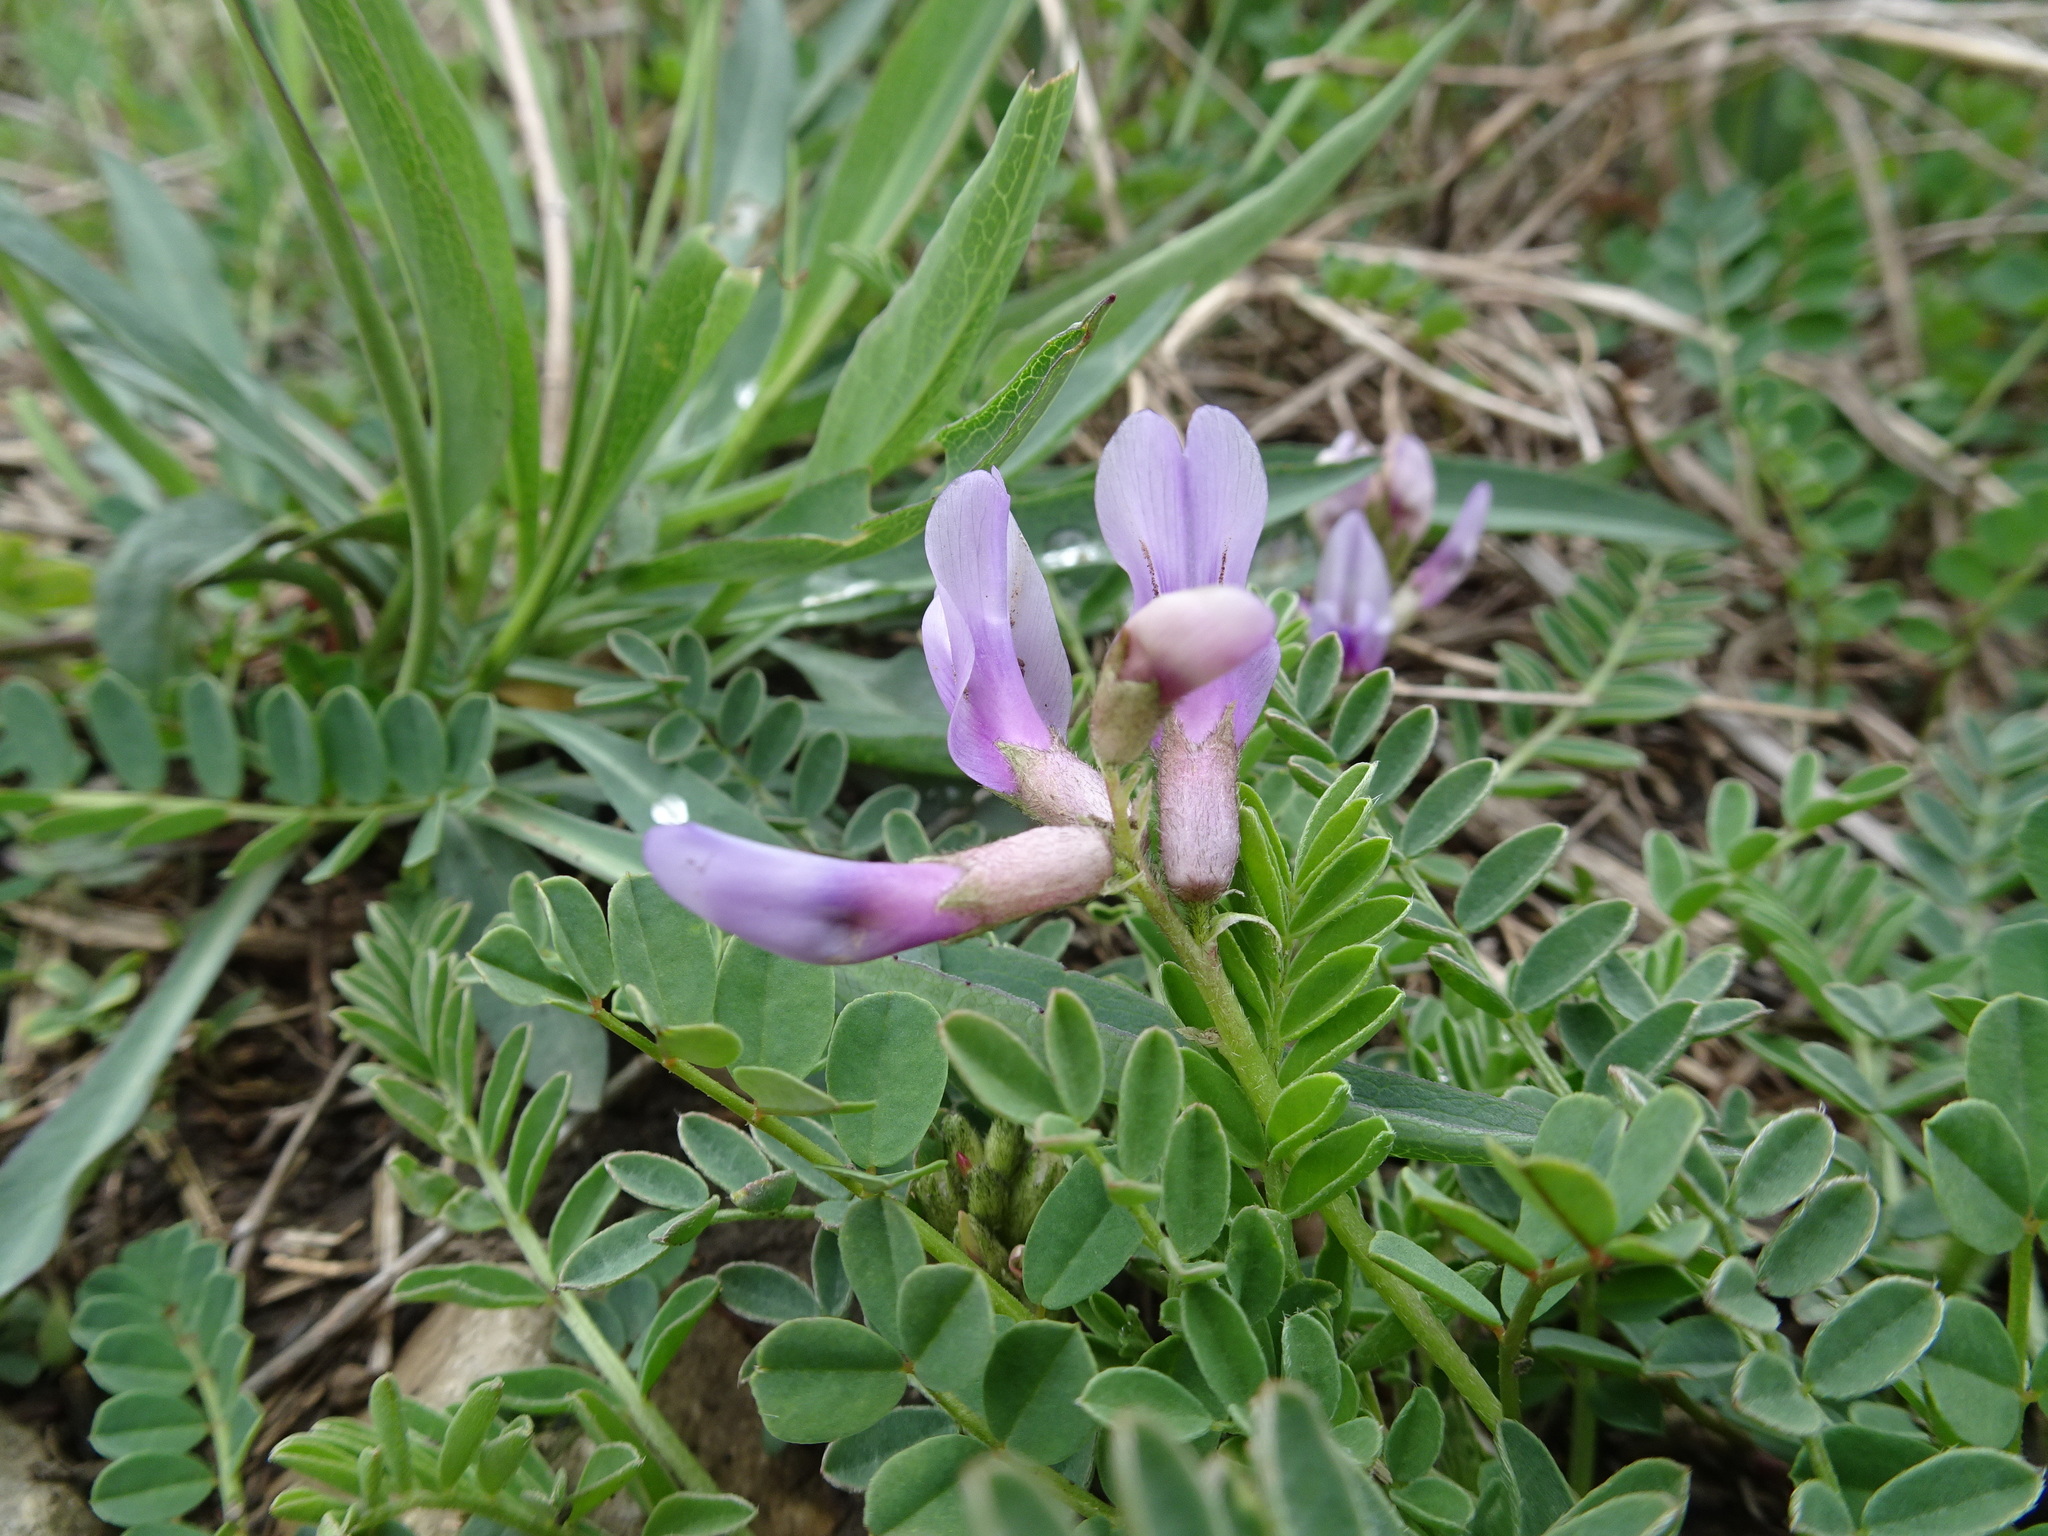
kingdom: Plantae
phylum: Tracheophyta
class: Magnoliopsida
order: Fabales
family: Fabaceae
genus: Astragalus
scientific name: Astragalus crassicarpus
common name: Ground-plum milk-vetch
